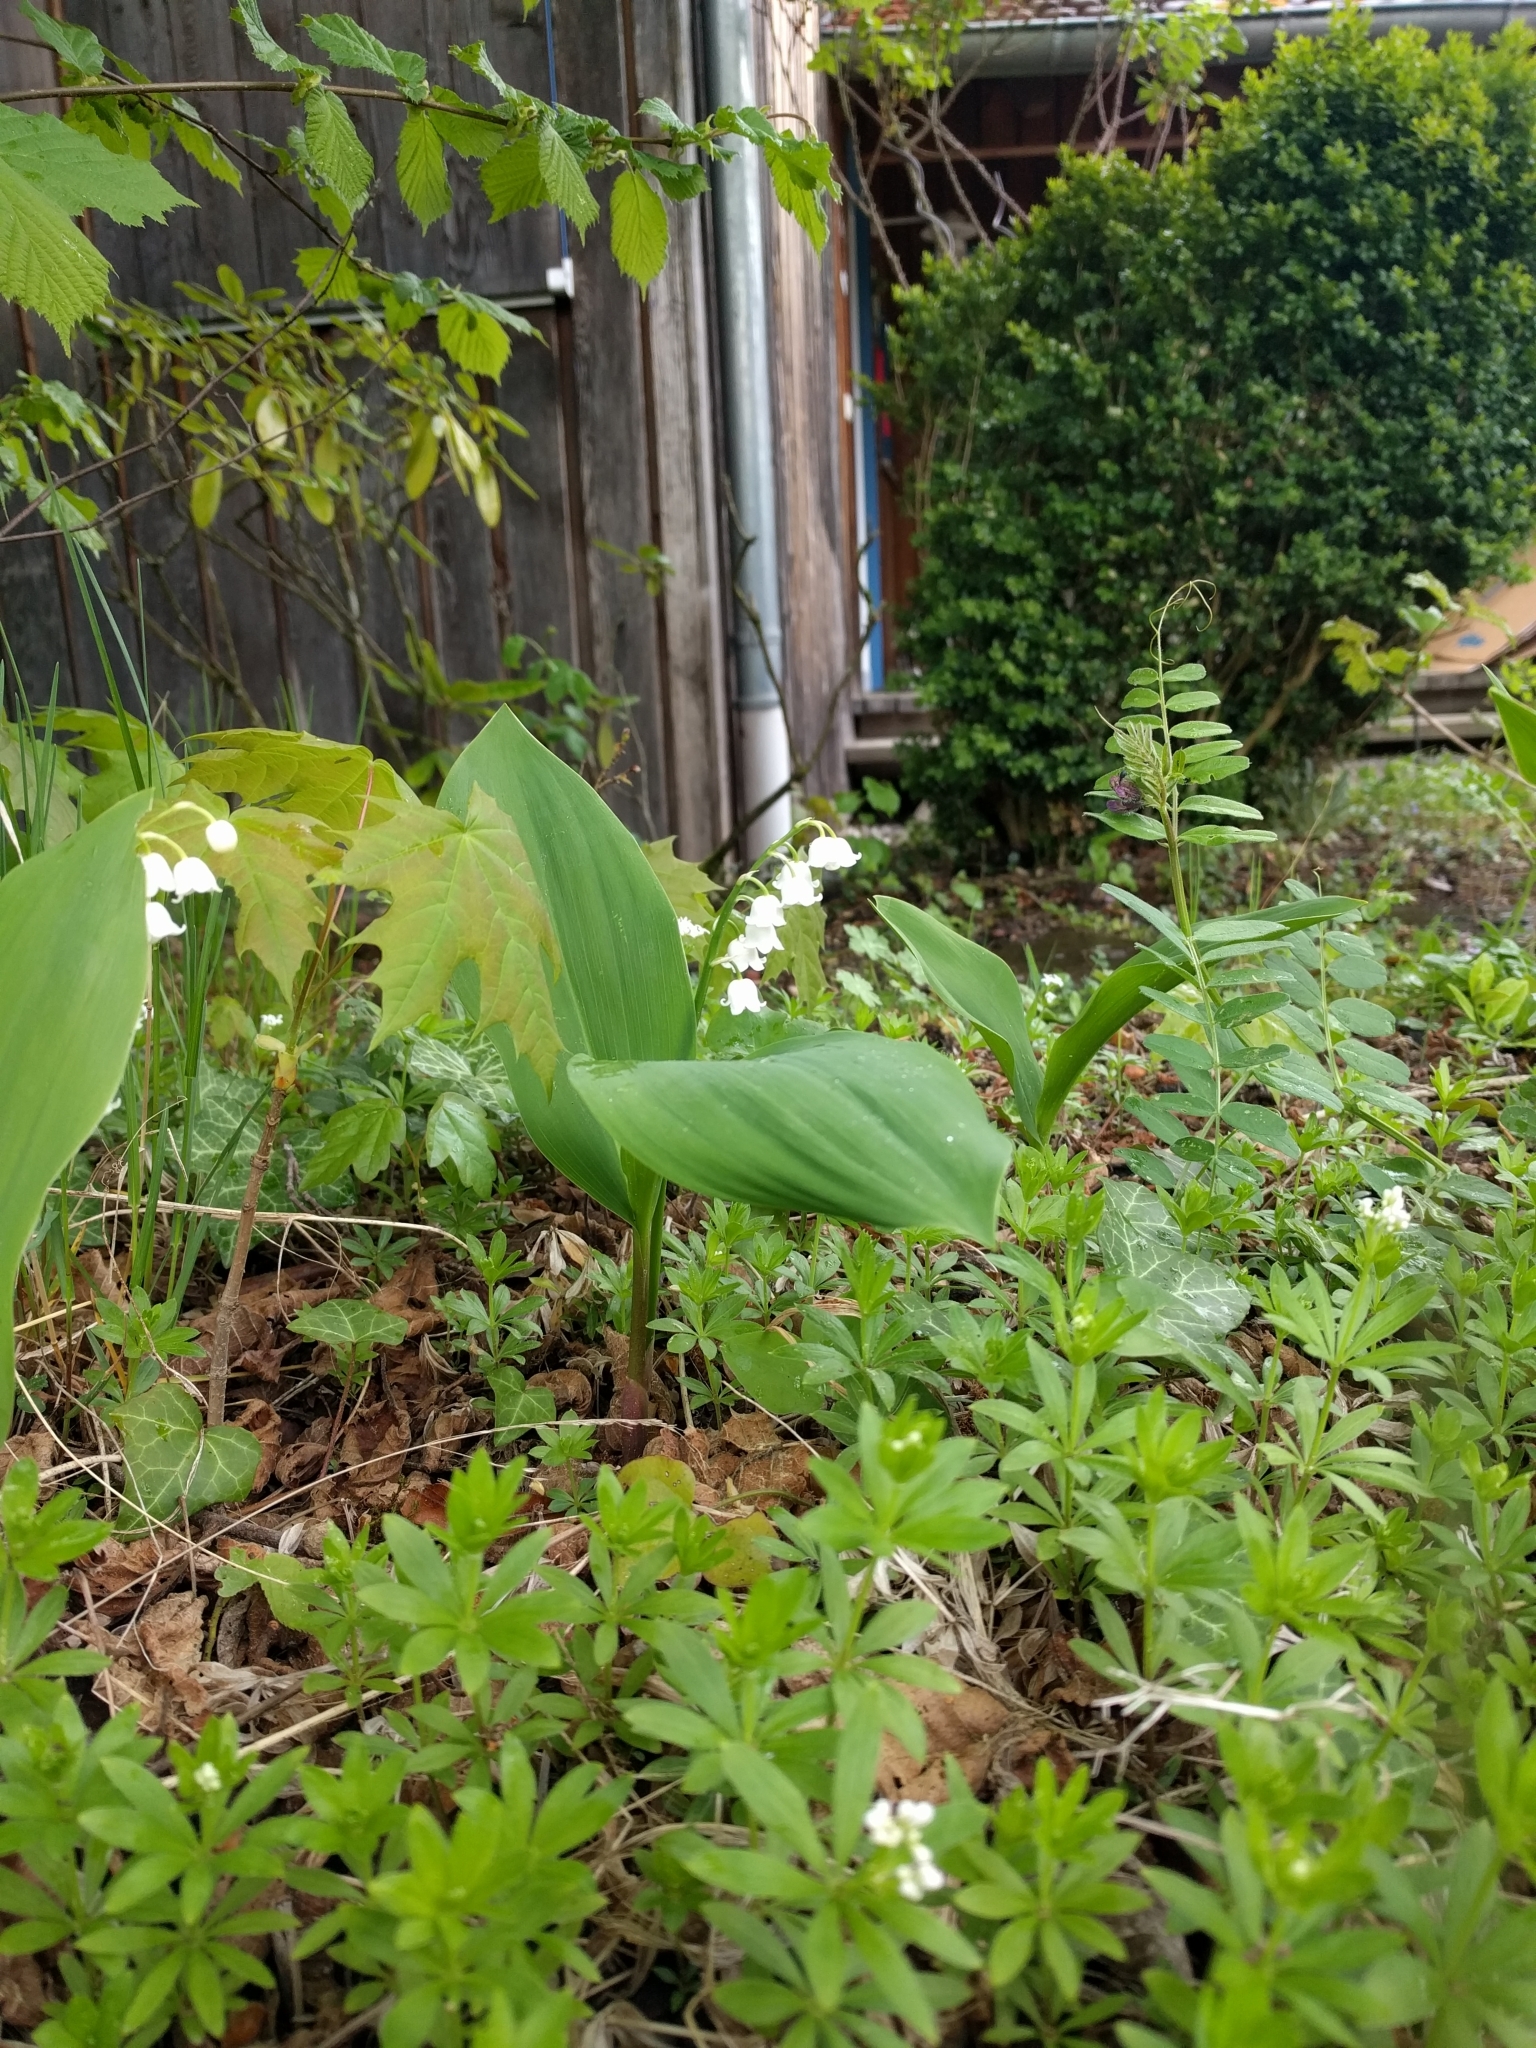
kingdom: Plantae
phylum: Tracheophyta
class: Liliopsida
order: Asparagales
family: Asparagaceae
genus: Convallaria
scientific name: Convallaria majalis
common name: Lily-of-the-valley
